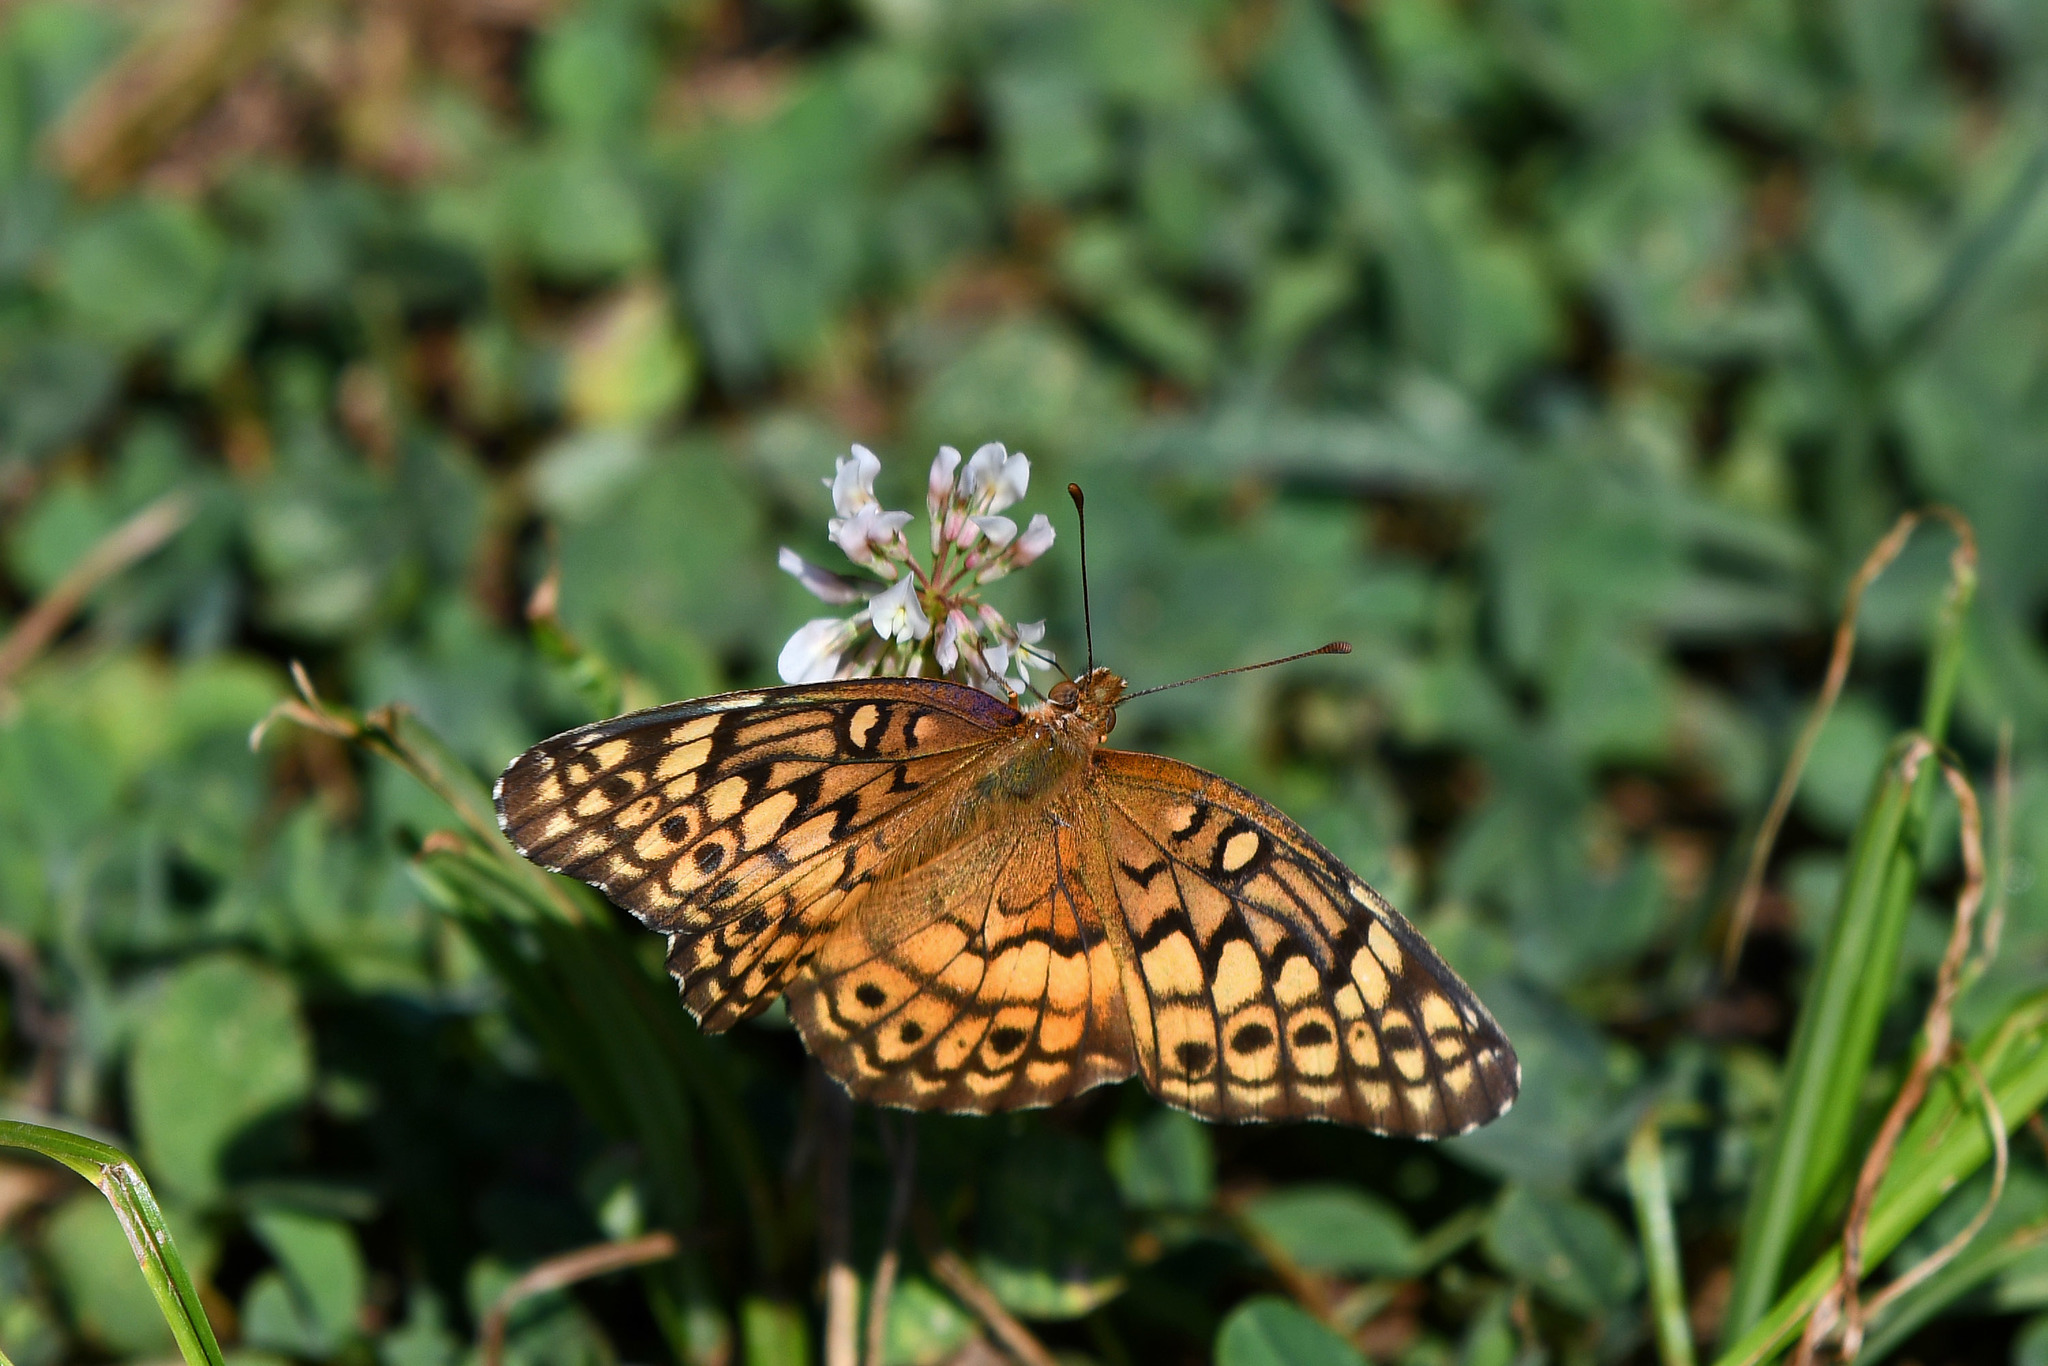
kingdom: Animalia
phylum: Arthropoda
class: Insecta
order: Lepidoptera
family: Nymphalidae
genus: Euptoieta
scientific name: Euptoieta claudia
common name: Variegated fritillary
